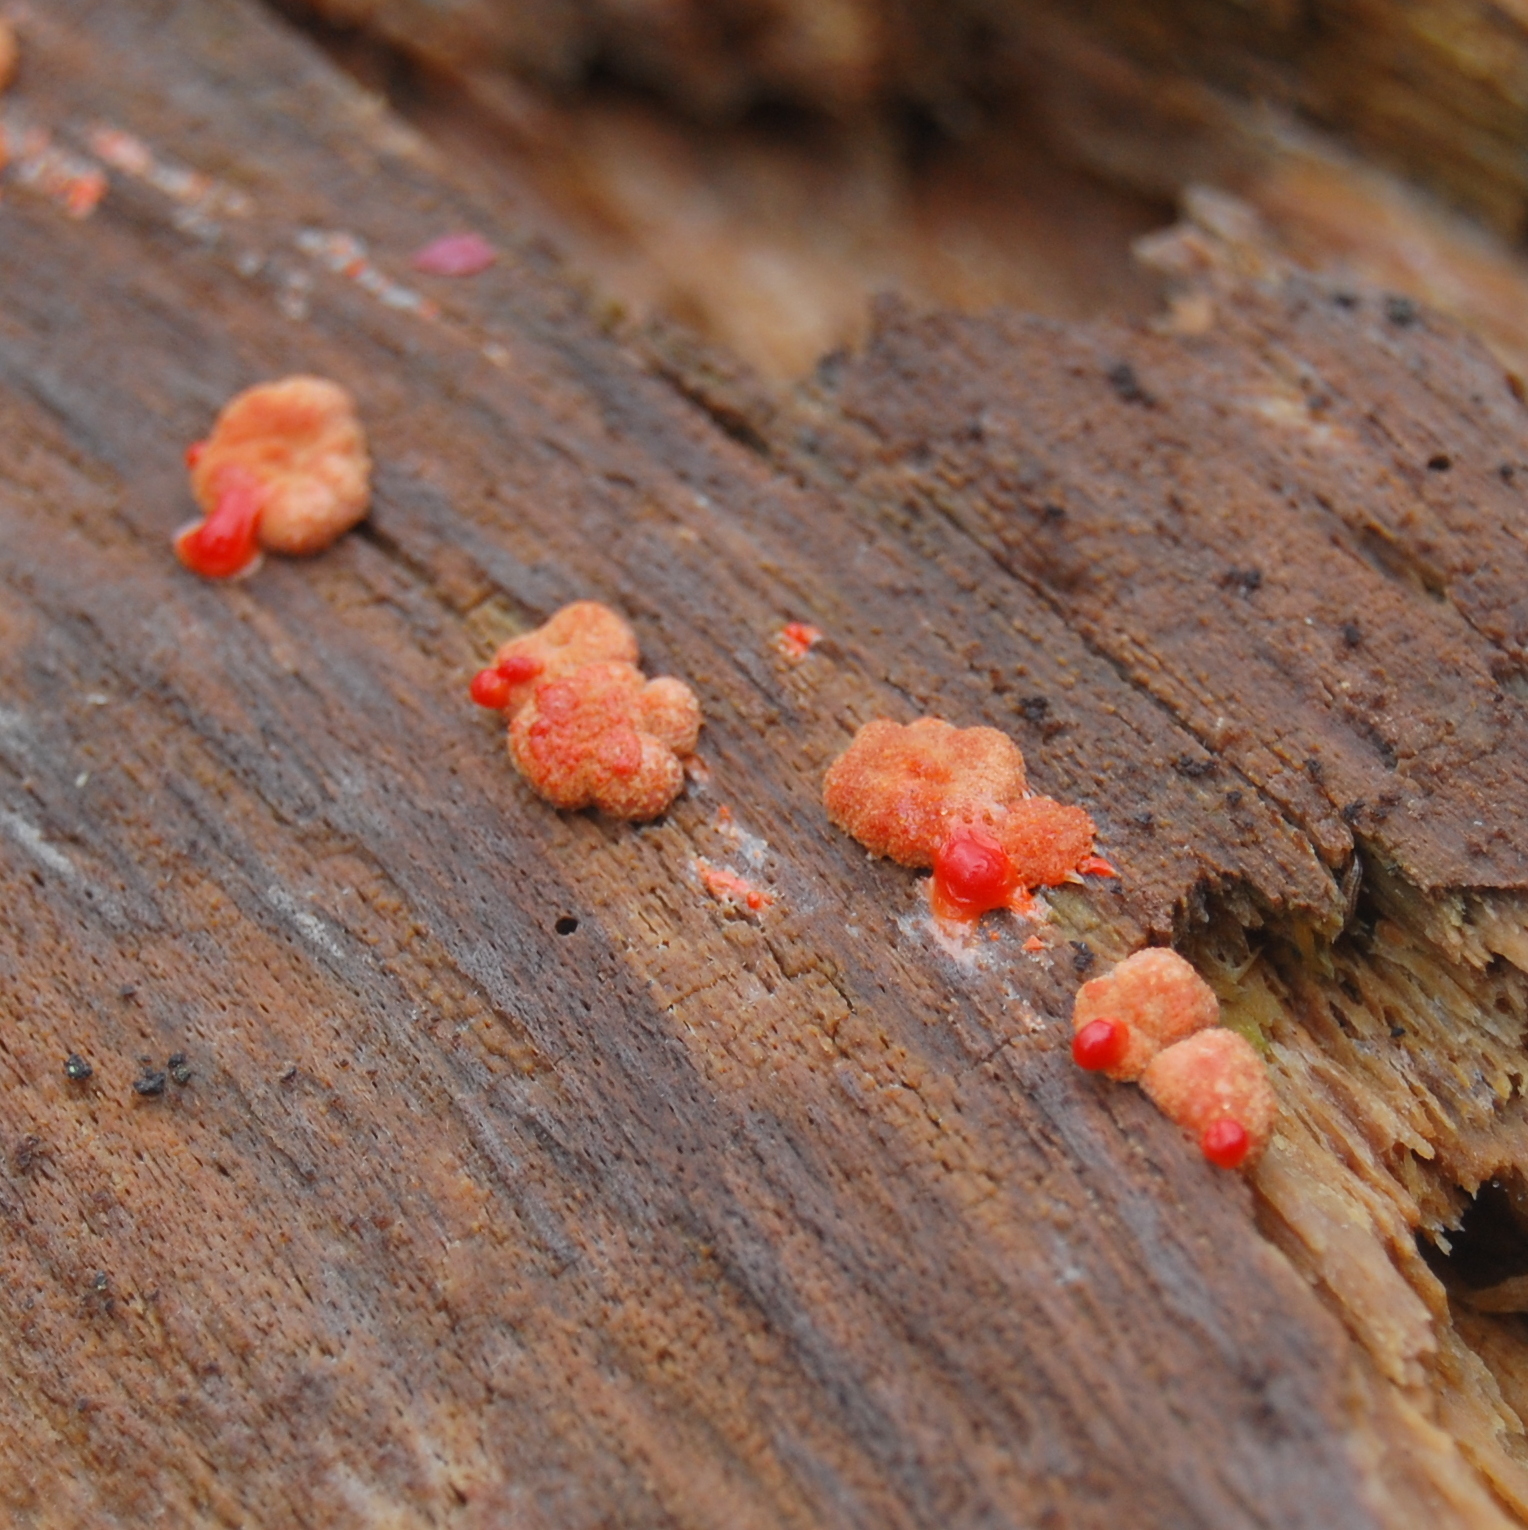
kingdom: Protozoa
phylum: Mycetozoa
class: Myxomycetes
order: Cribrariales
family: Tubiferaceae
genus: Lycogala
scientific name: Lycogala epidendrum
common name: Wolf's milk
